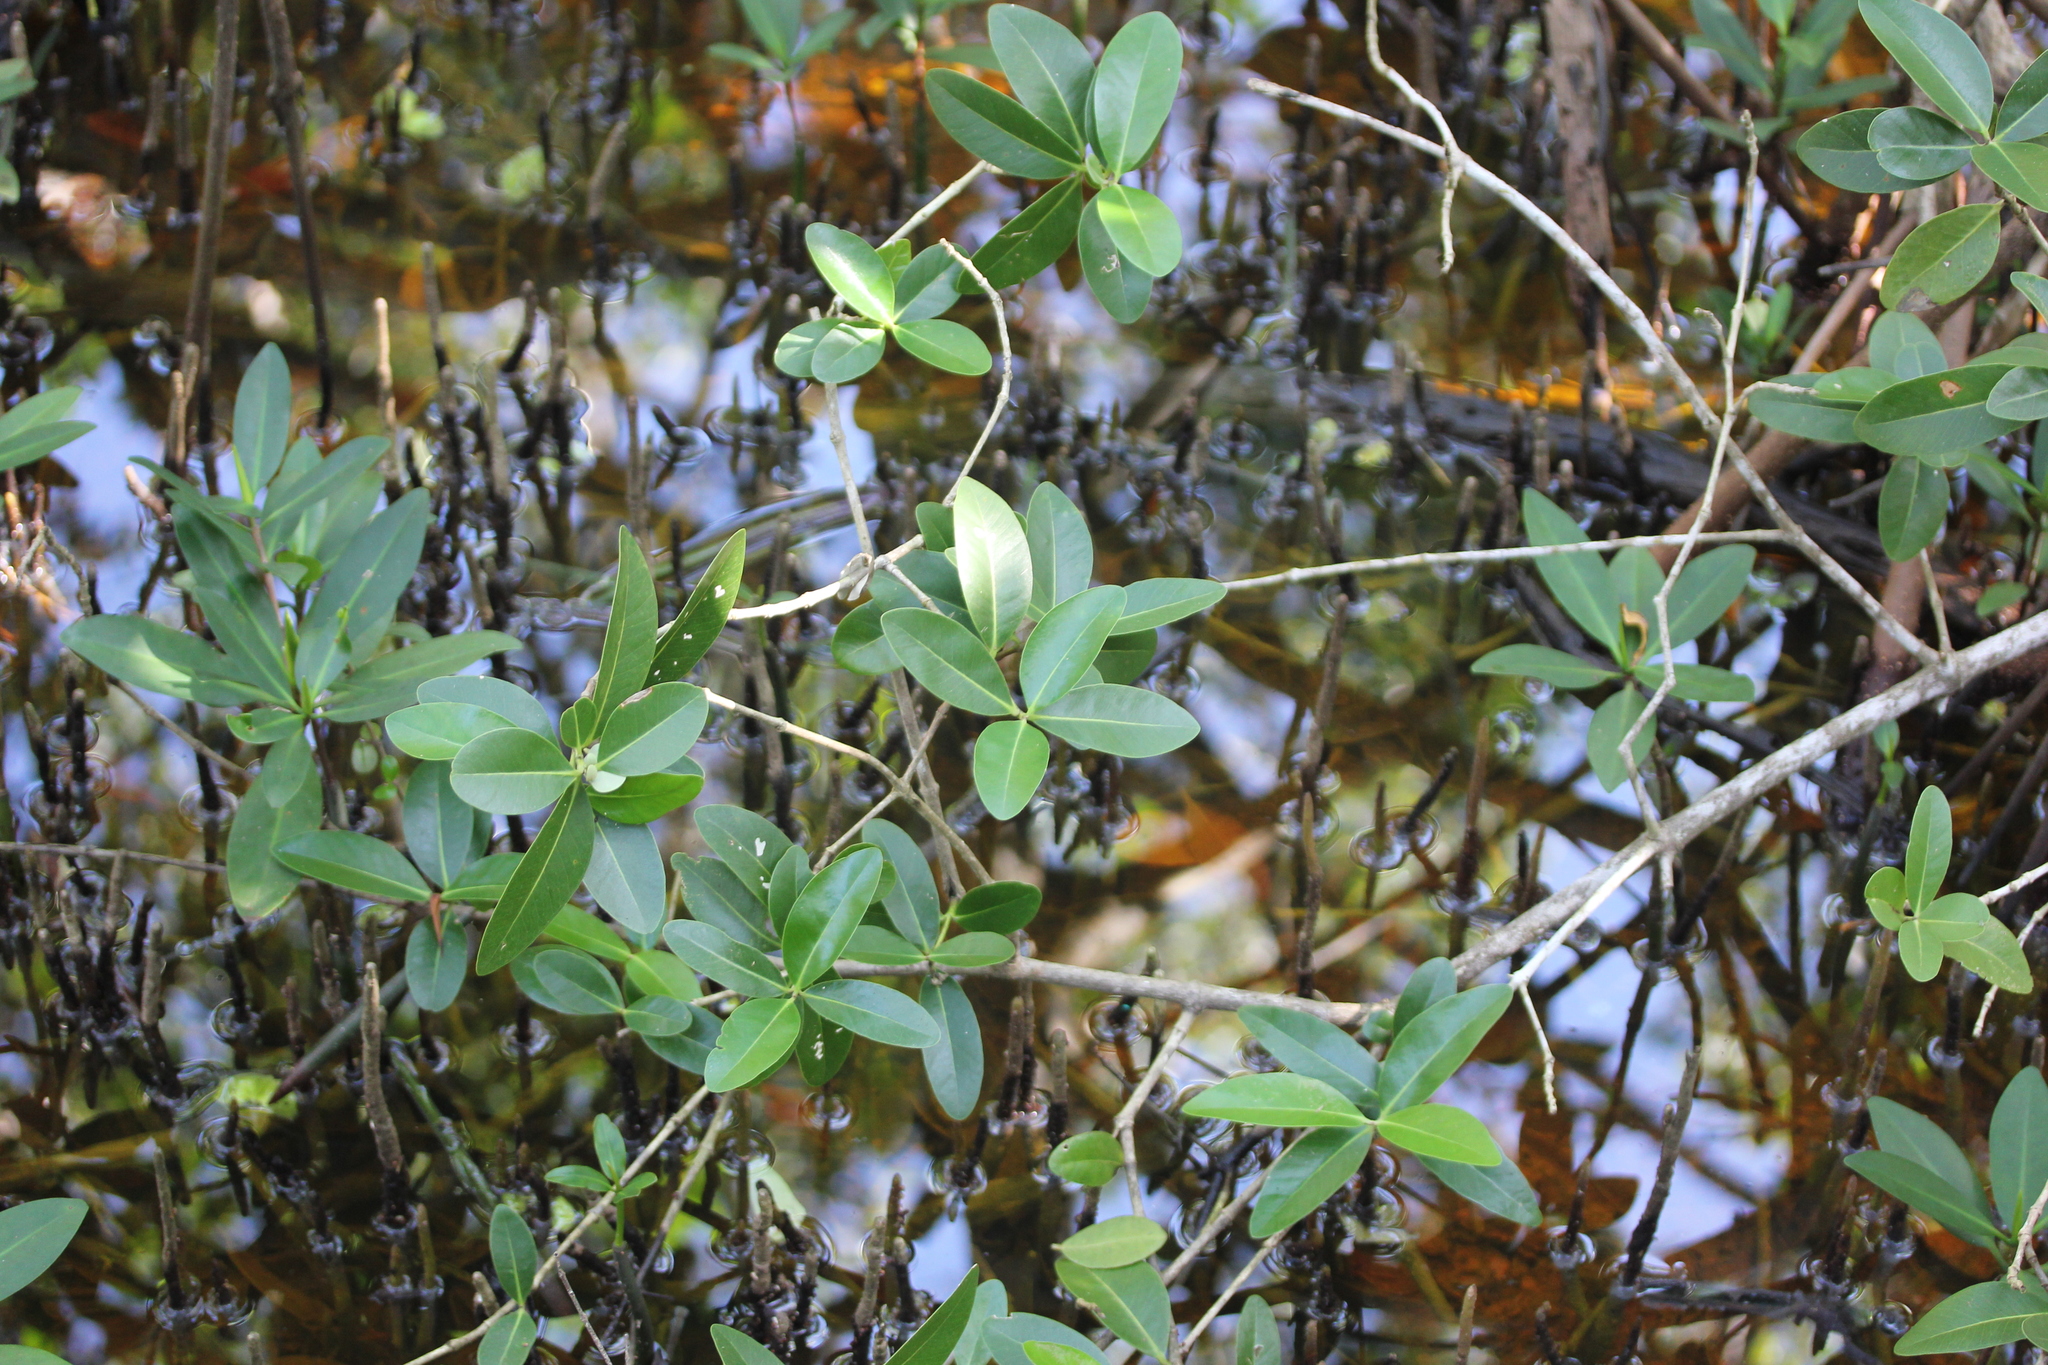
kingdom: Plantae
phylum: Tracheophyta
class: Magnoliopsida
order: Lamiales
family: Acanthaceae
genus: Avicennia
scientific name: Avicennia germinans
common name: Black mangrove
